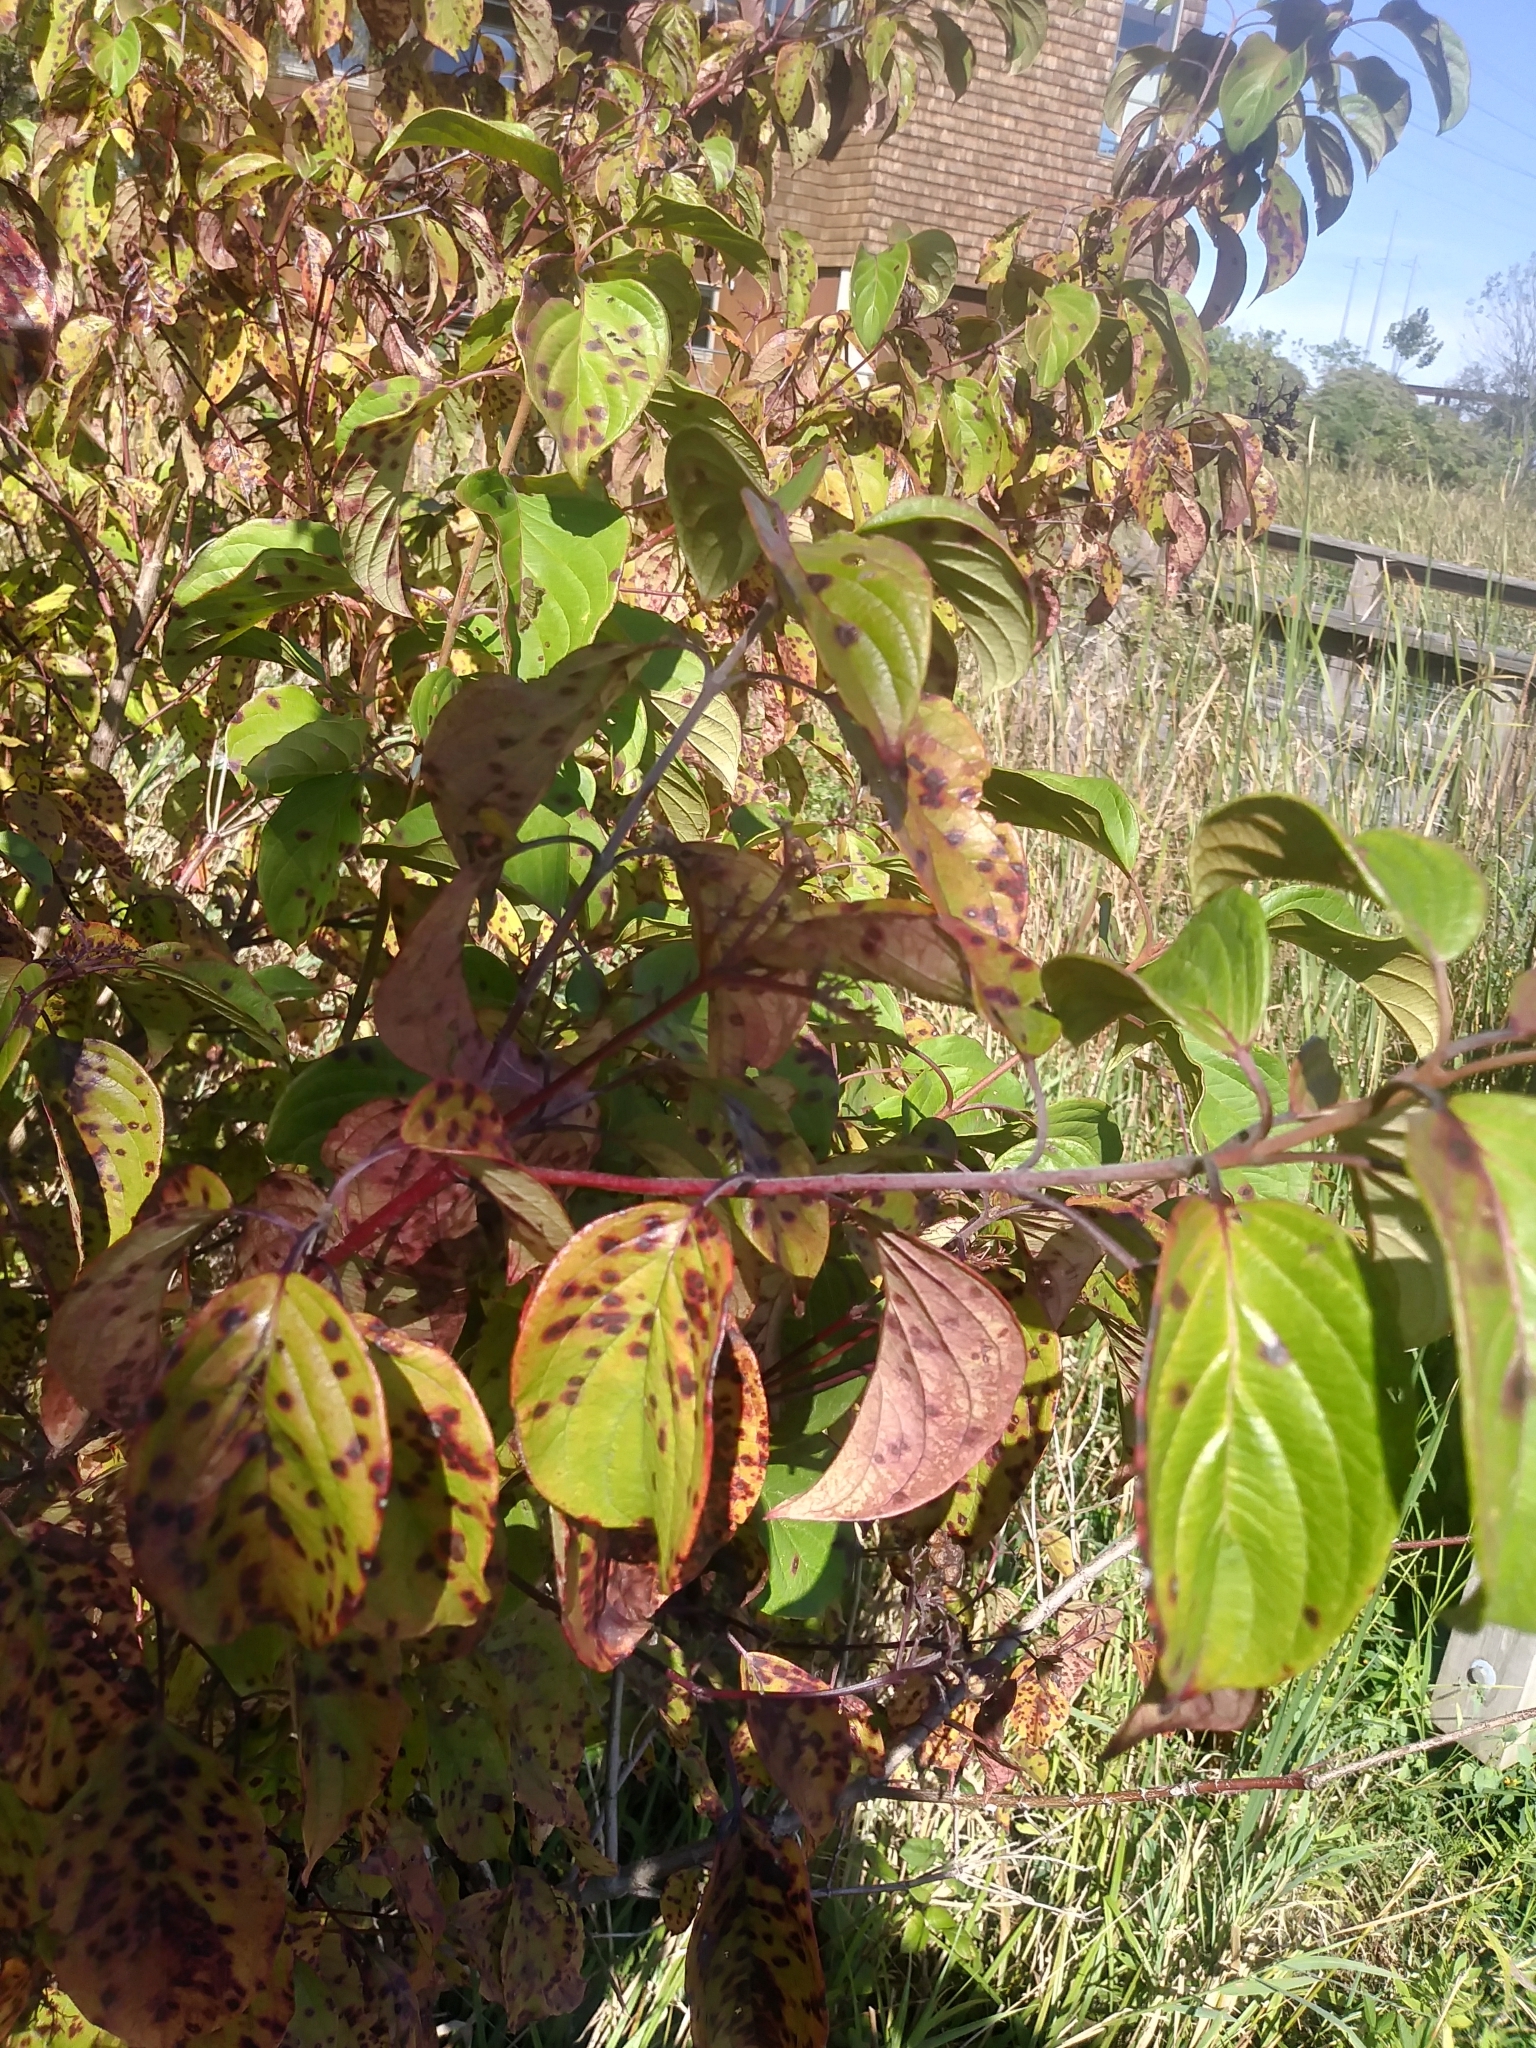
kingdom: Plantae
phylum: Tracheophyta
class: Magnoliopsida
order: Cornales
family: Cornaceae
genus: Cornus
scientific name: Cornus sericea
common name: Red-osier dogwood
